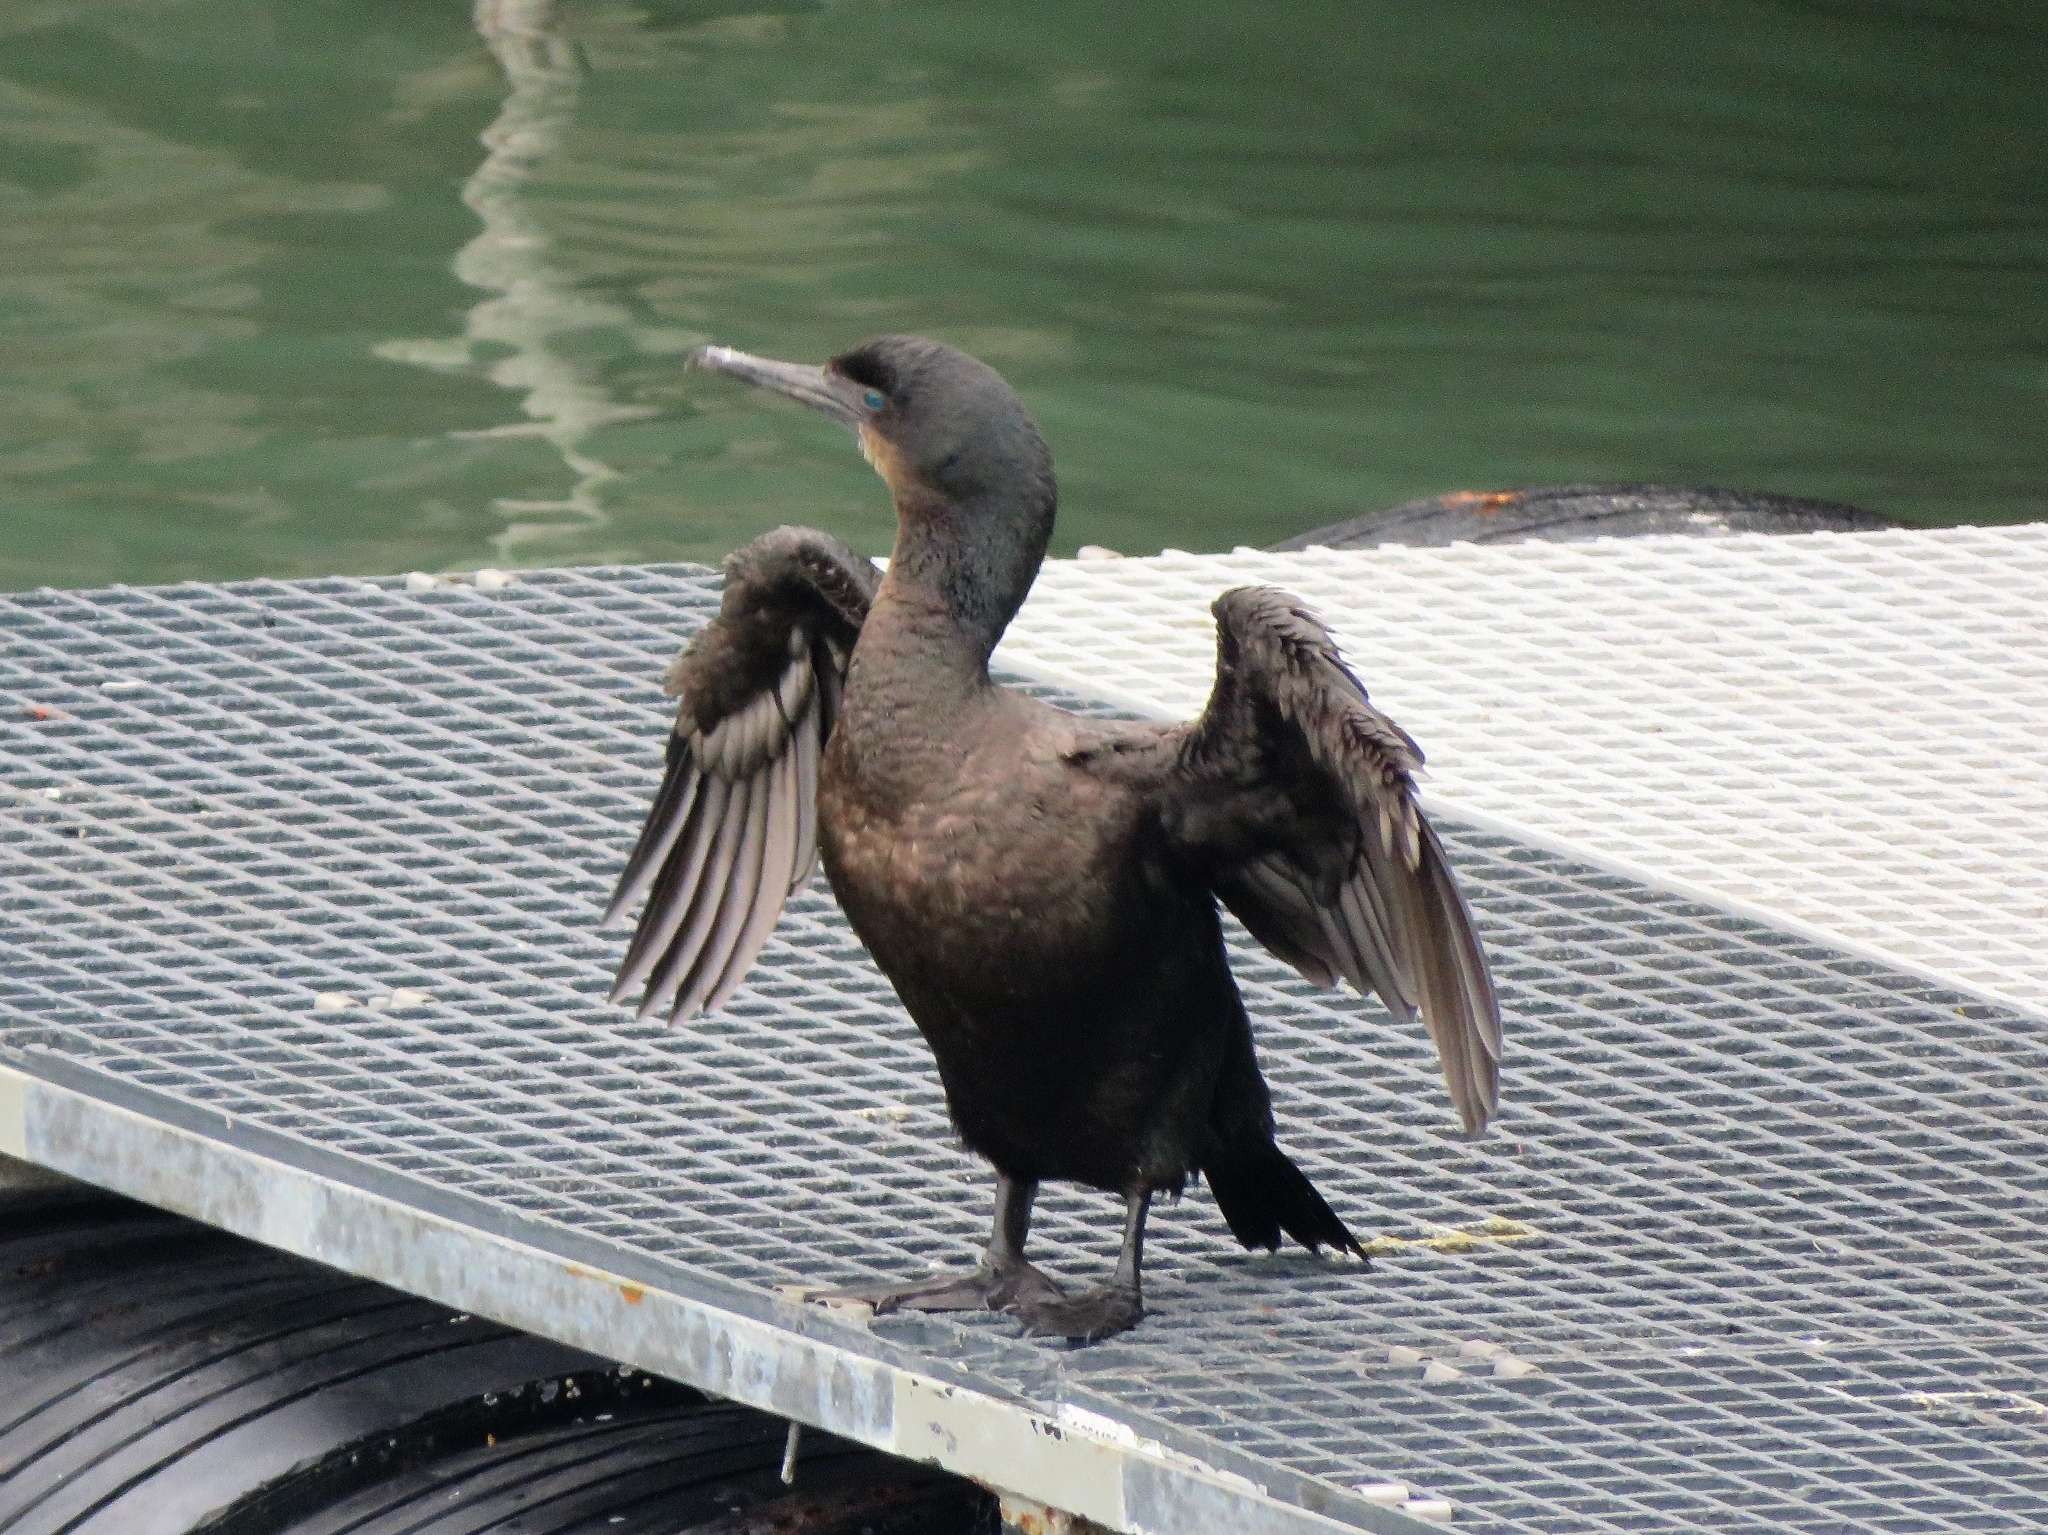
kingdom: Animalia
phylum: Chordata
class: Aves
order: Suliformes
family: Phalacrocoracidae
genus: Urile
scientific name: Urile penicillatus
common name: Brandt's cormorant
